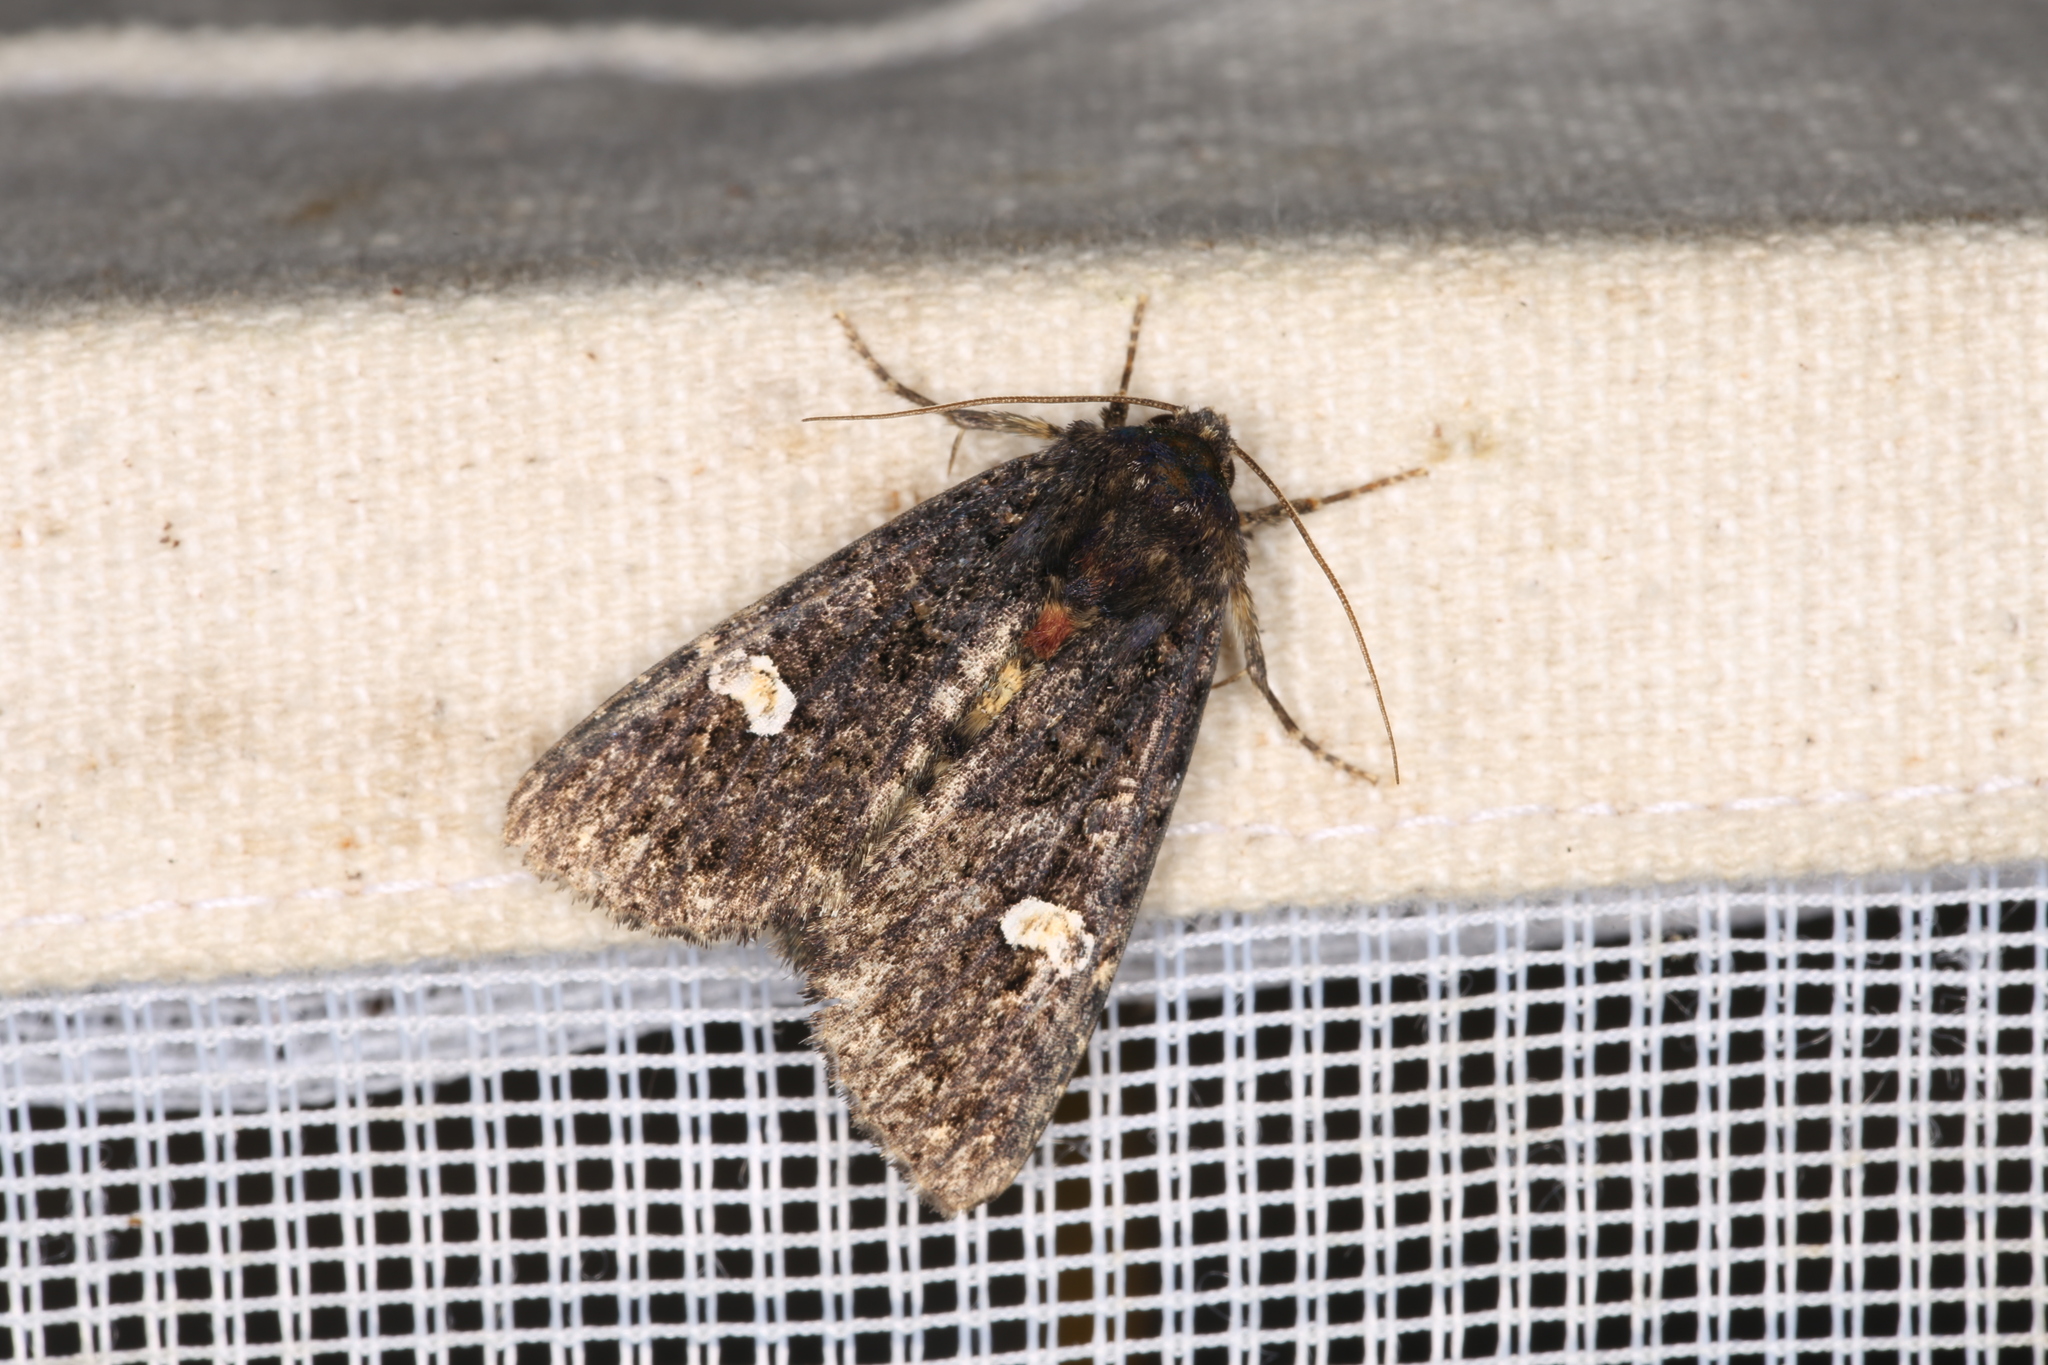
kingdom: Animalia
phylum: Arthropoda
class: Insecta
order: Lepidoptera
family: Noctuidae
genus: Melanchra
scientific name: Melanchra persicariae
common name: Dot moth
